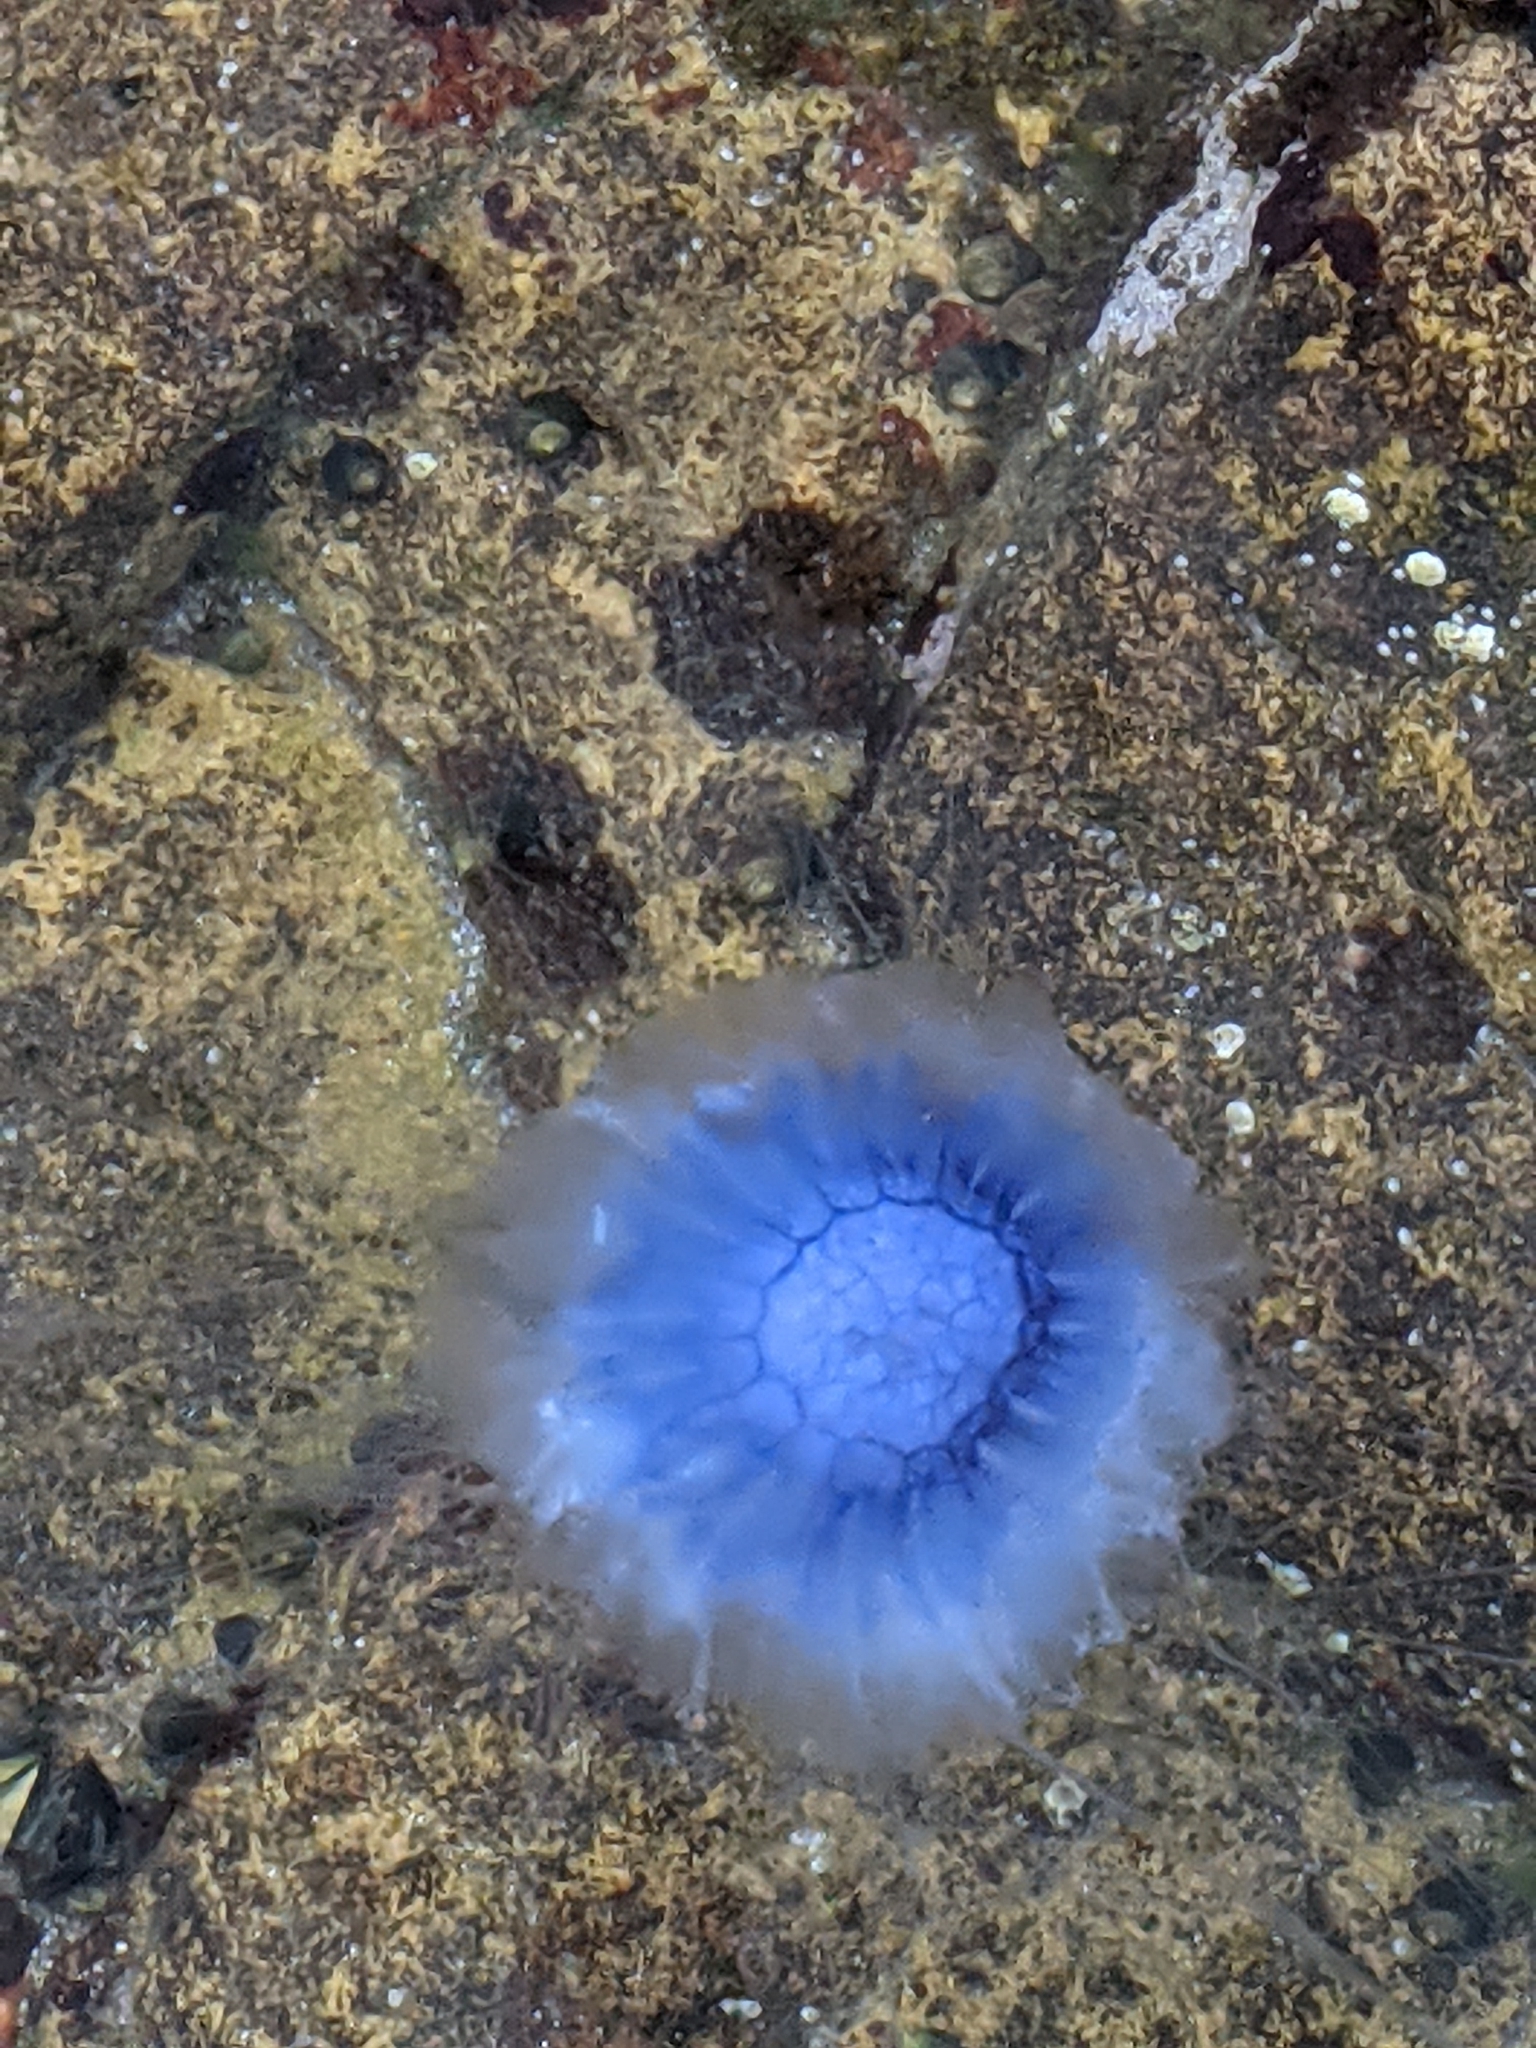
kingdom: Animalia
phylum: Cnidaria
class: Scyphozoa
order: Semaeostomeae
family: Cyaneidae
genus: Cyanea
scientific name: Cyanea lamarckii
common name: Blue jellyfish
